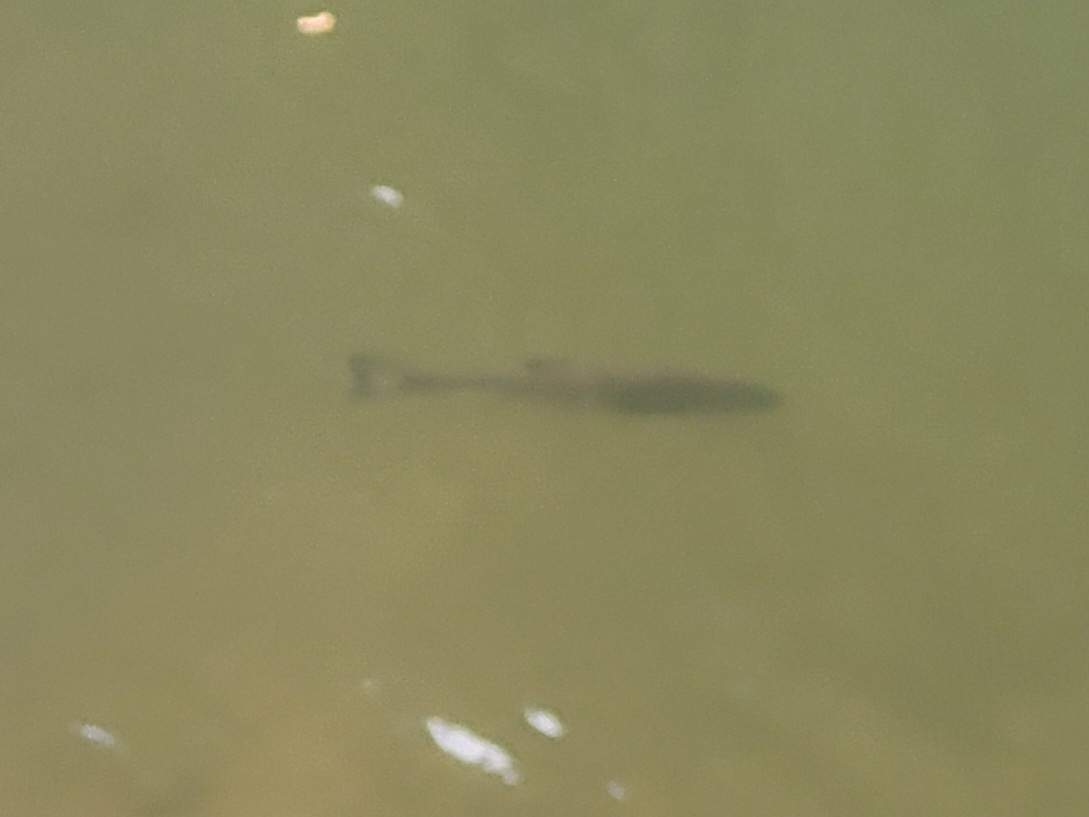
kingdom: Animalia
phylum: Chordata
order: Cypriniformes
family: Cyprinidae
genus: Squalius
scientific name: Squalius cephalus
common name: Chub
